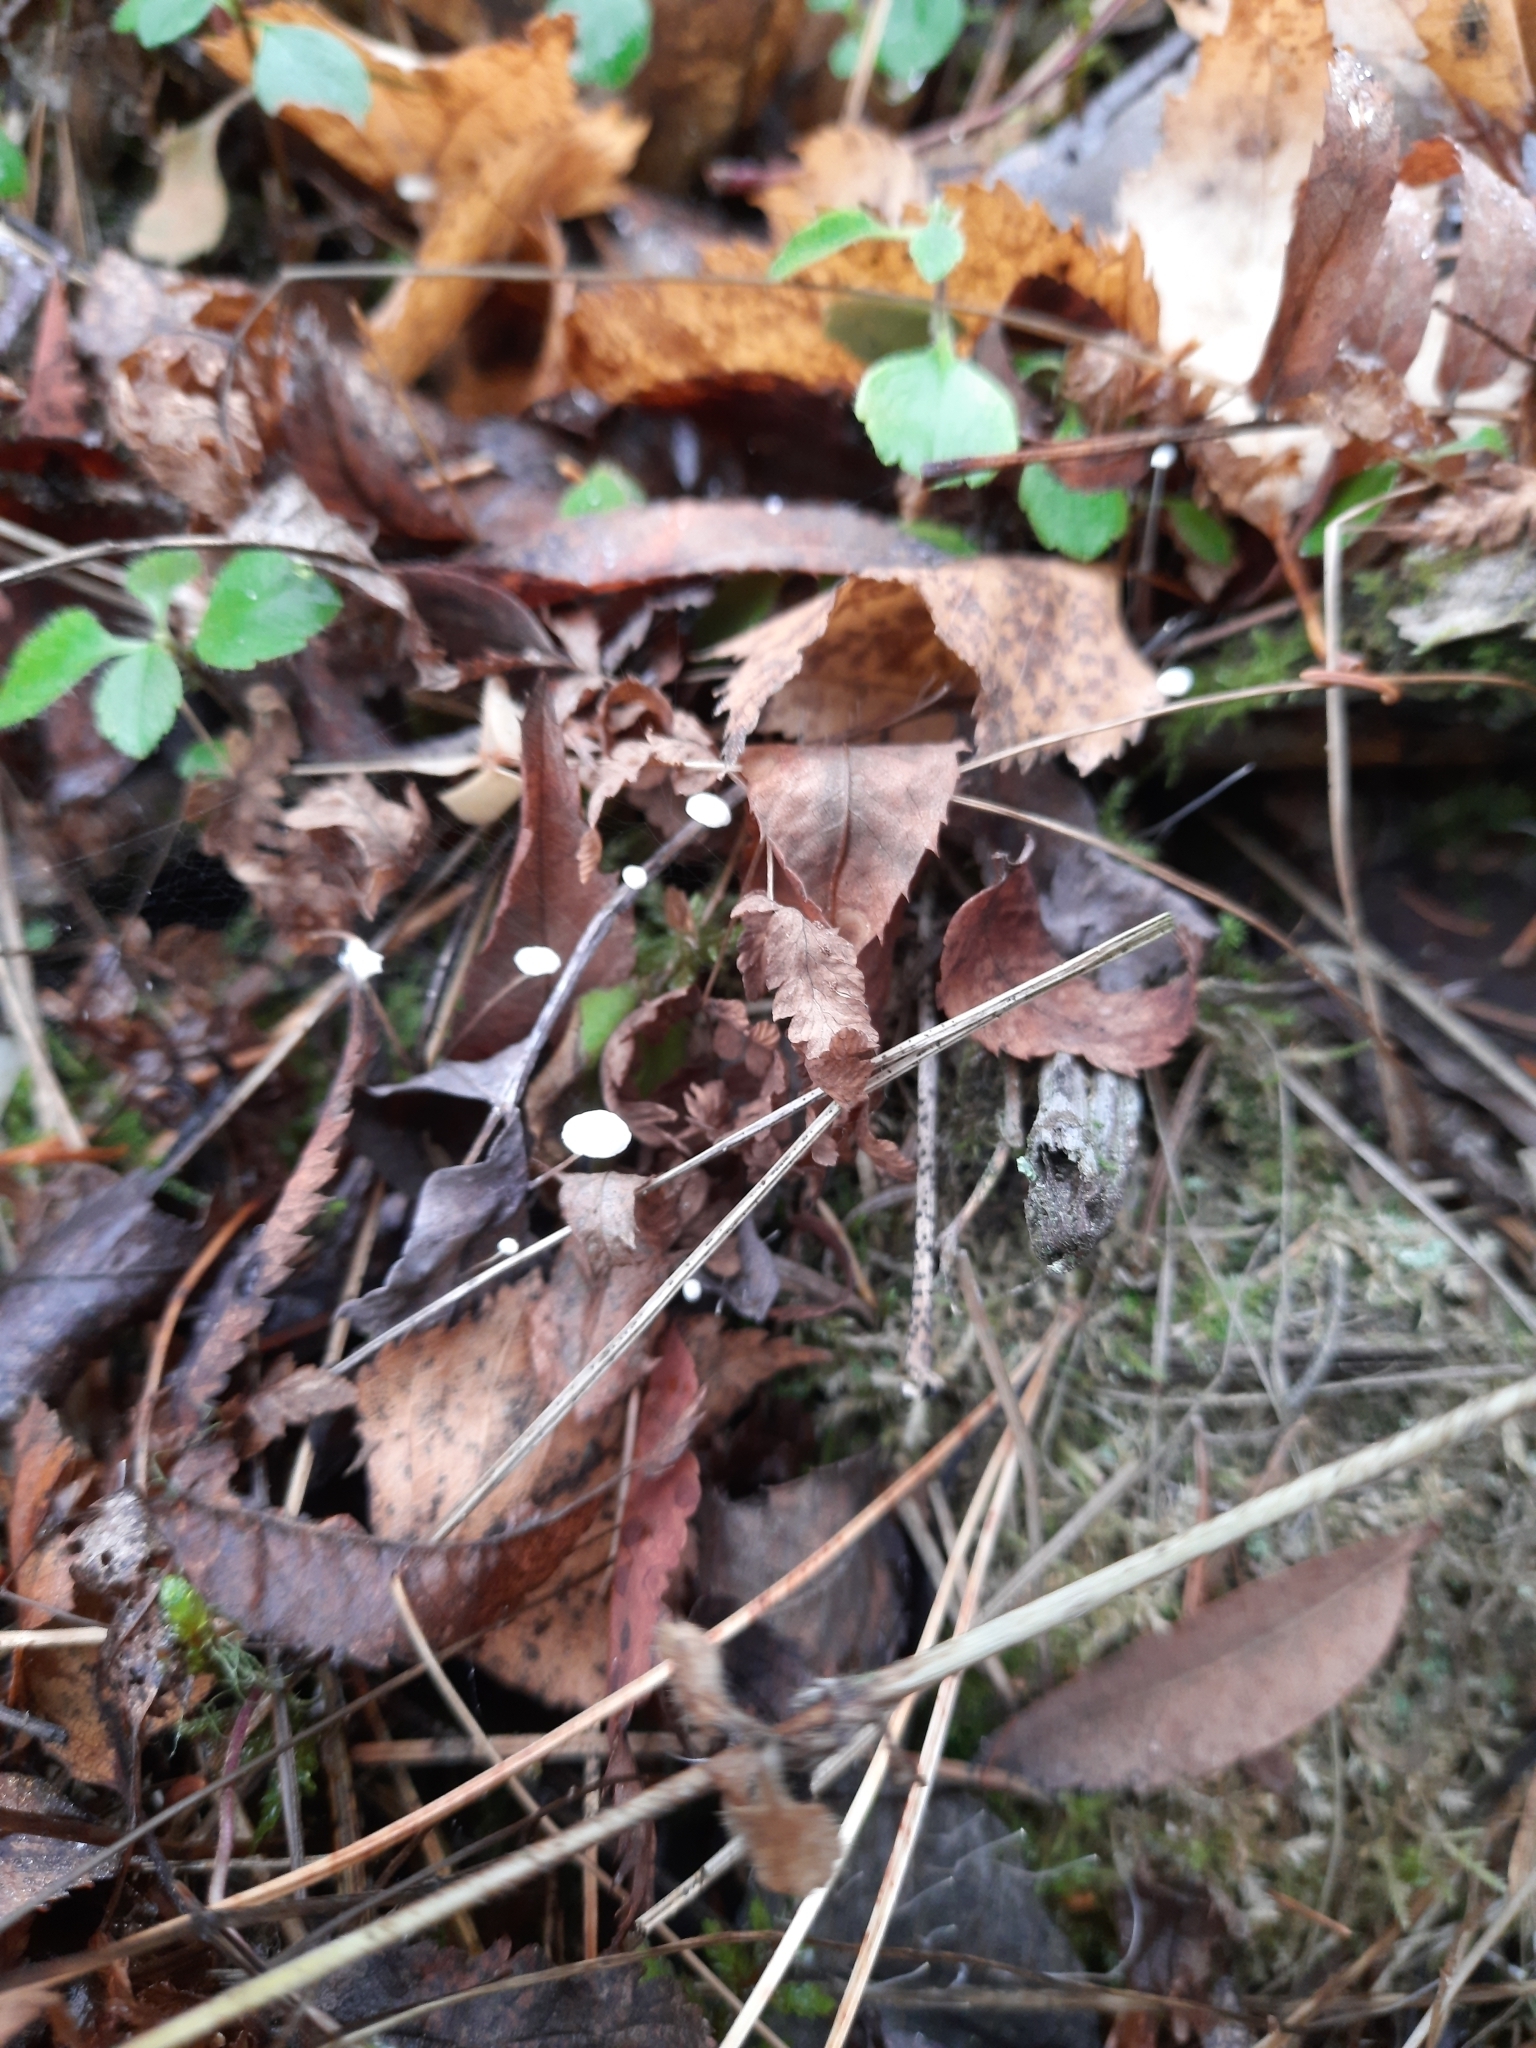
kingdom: Fungi
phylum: Basidiomycota
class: Agaricomycetes
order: Agaricales
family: Physalacriaceae
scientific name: Physalacriaceae
